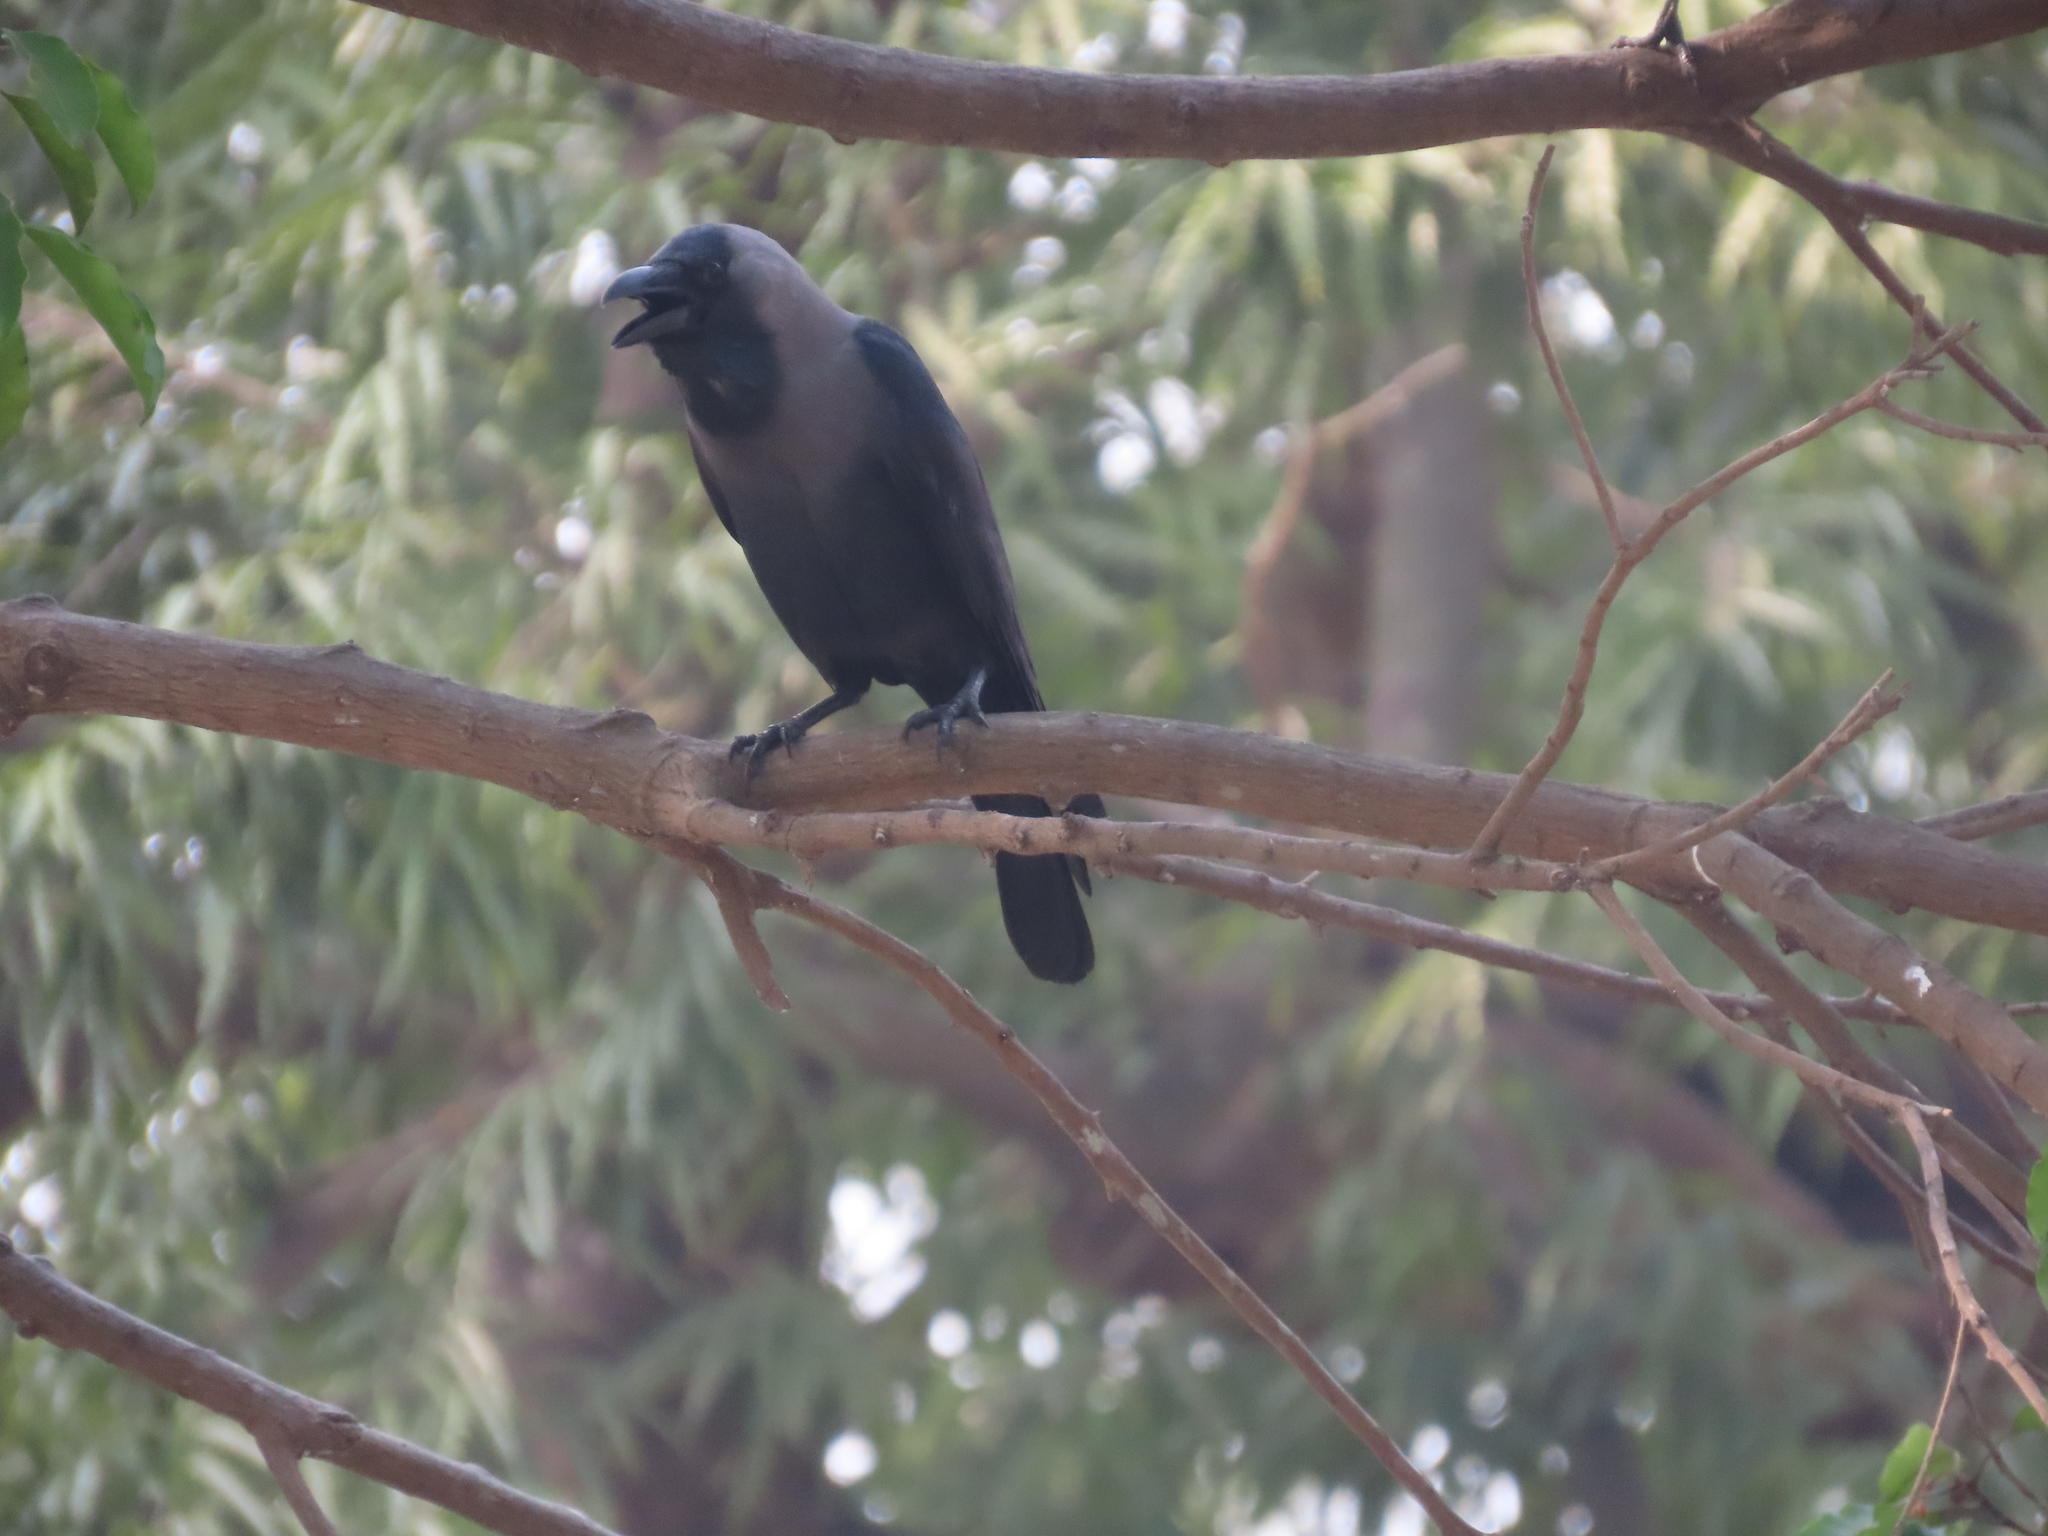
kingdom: Animalia
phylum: Chordata
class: Aves
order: Passeriformes
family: Corvidae
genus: Corvus
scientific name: Corvus splendens
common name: House crow
